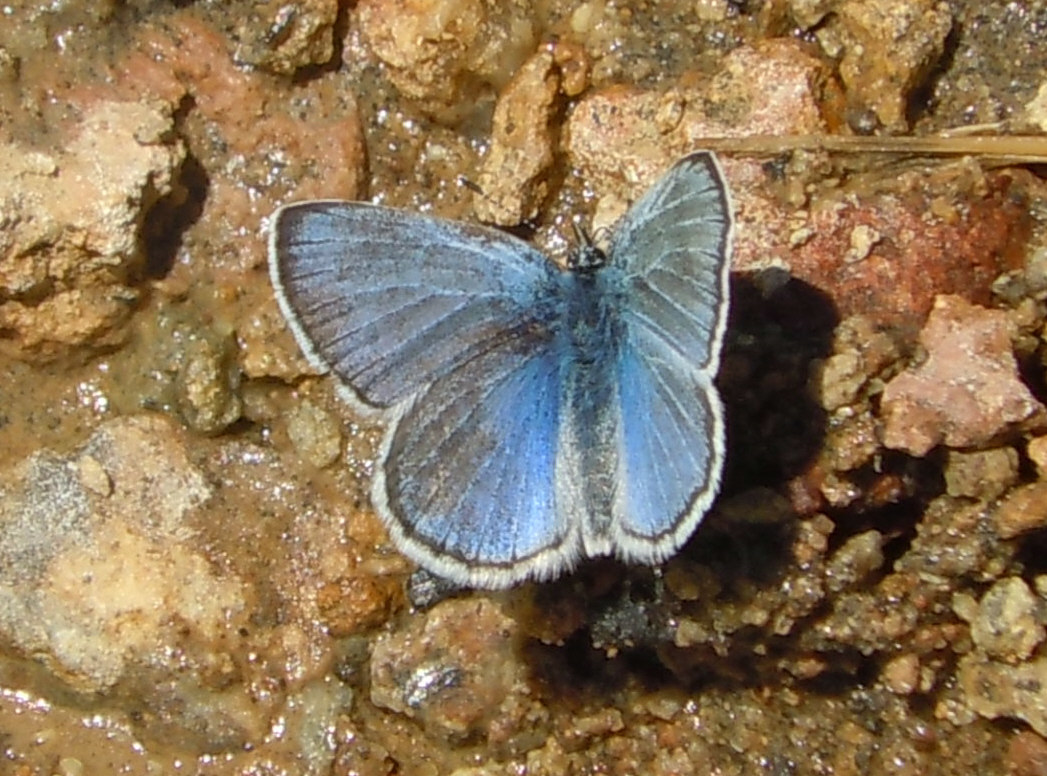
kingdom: Animalia
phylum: Arthropoda
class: Insecta
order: Lepidoptera
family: Lycaenidae
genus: Glaucopsyche
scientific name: Glaucopsyche lygdamus
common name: Silvery blue
